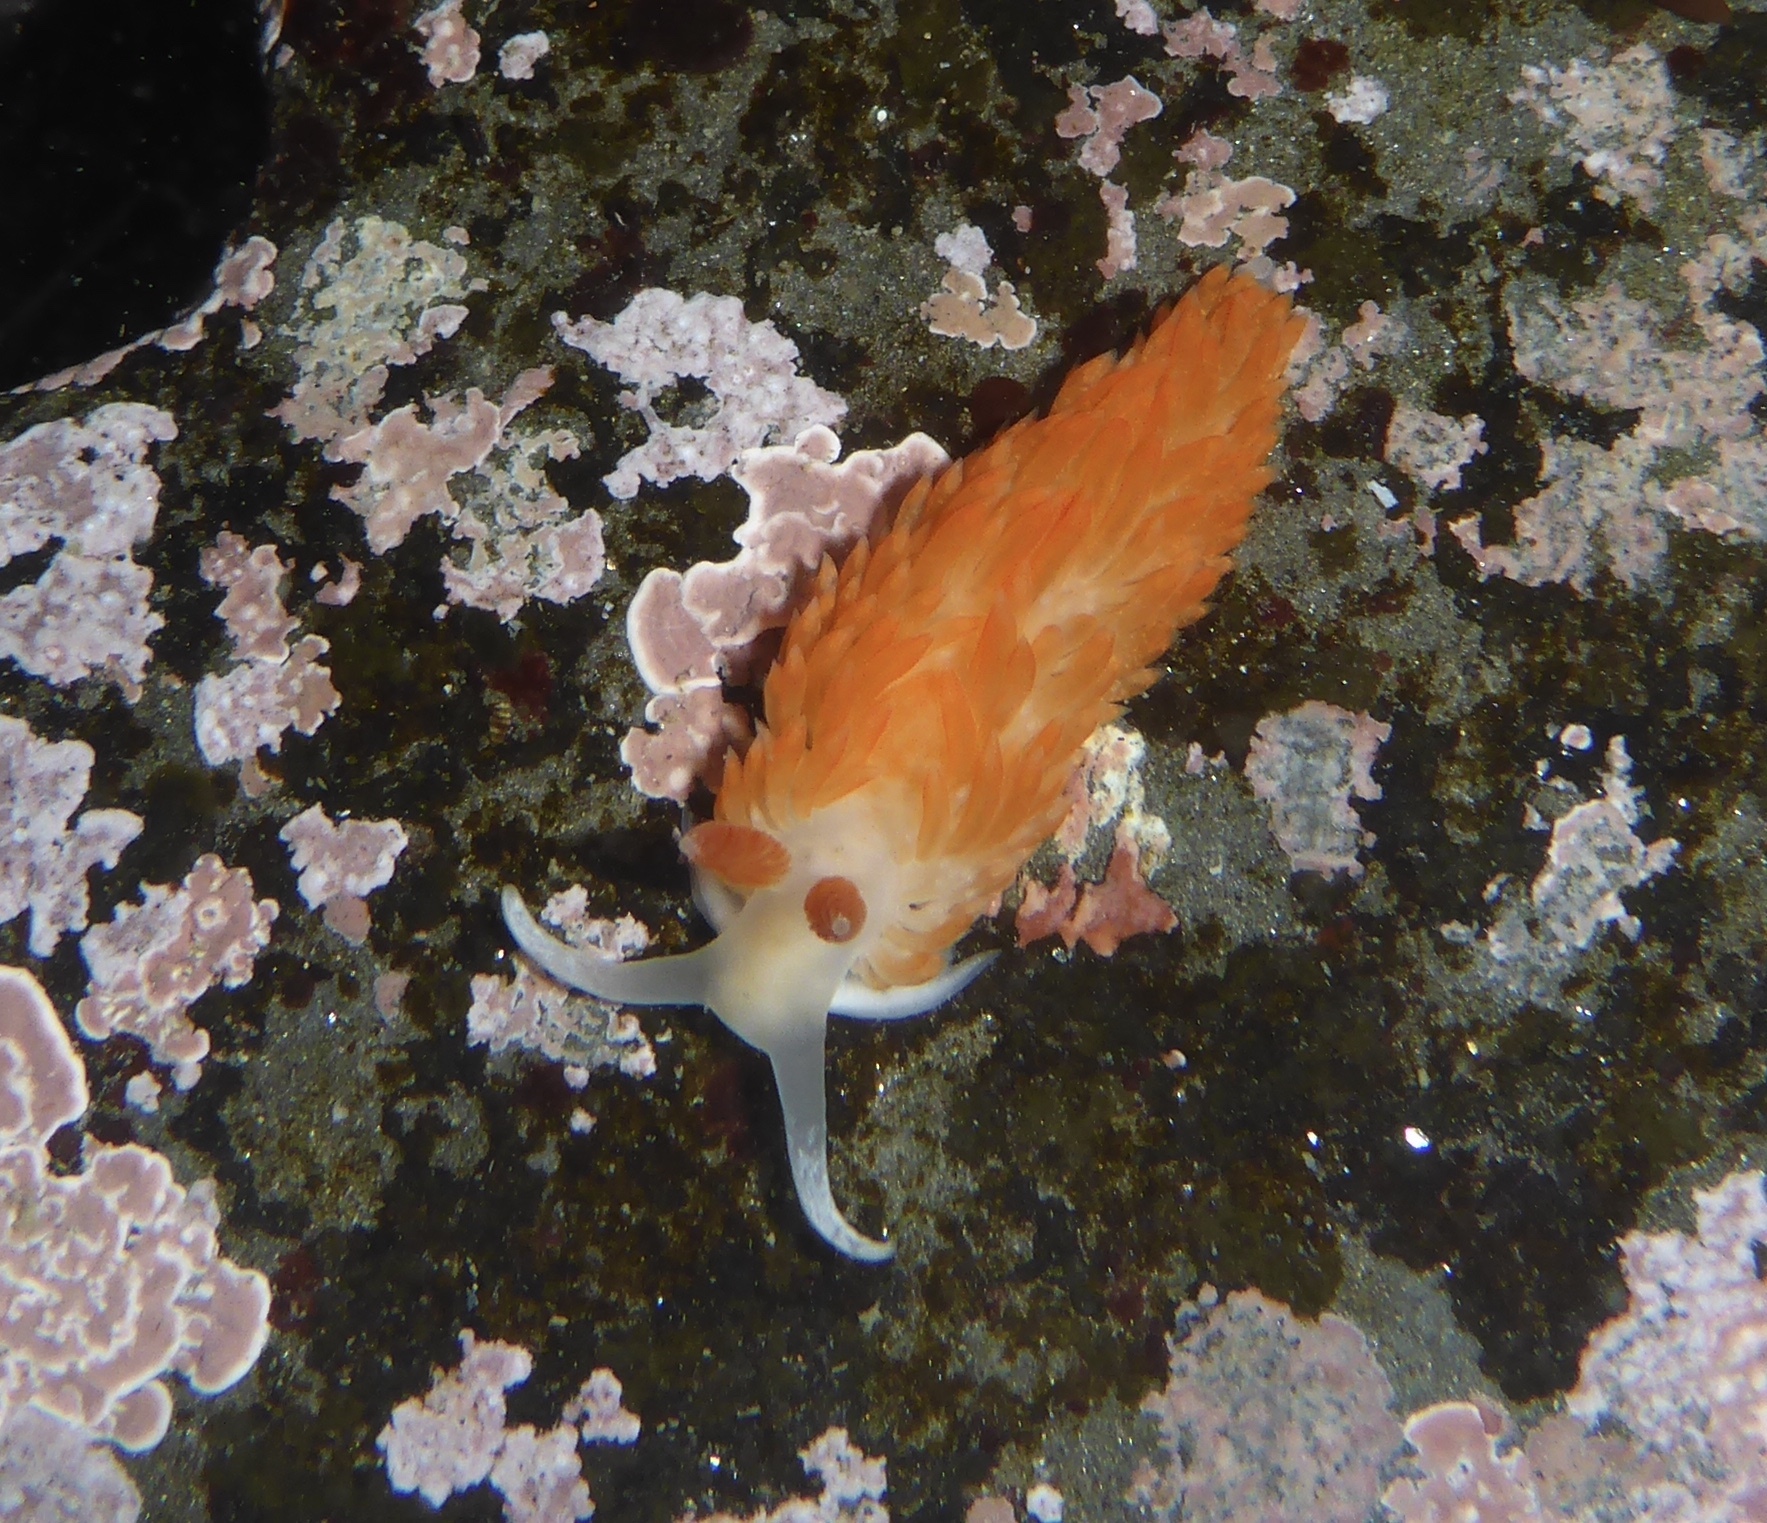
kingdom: Animalia
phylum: Mollusca
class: Gastropoda
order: Nudibranchia
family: Aeolidiidae
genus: Anteaeolidiella
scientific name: Anteaeolidiella oliviae
